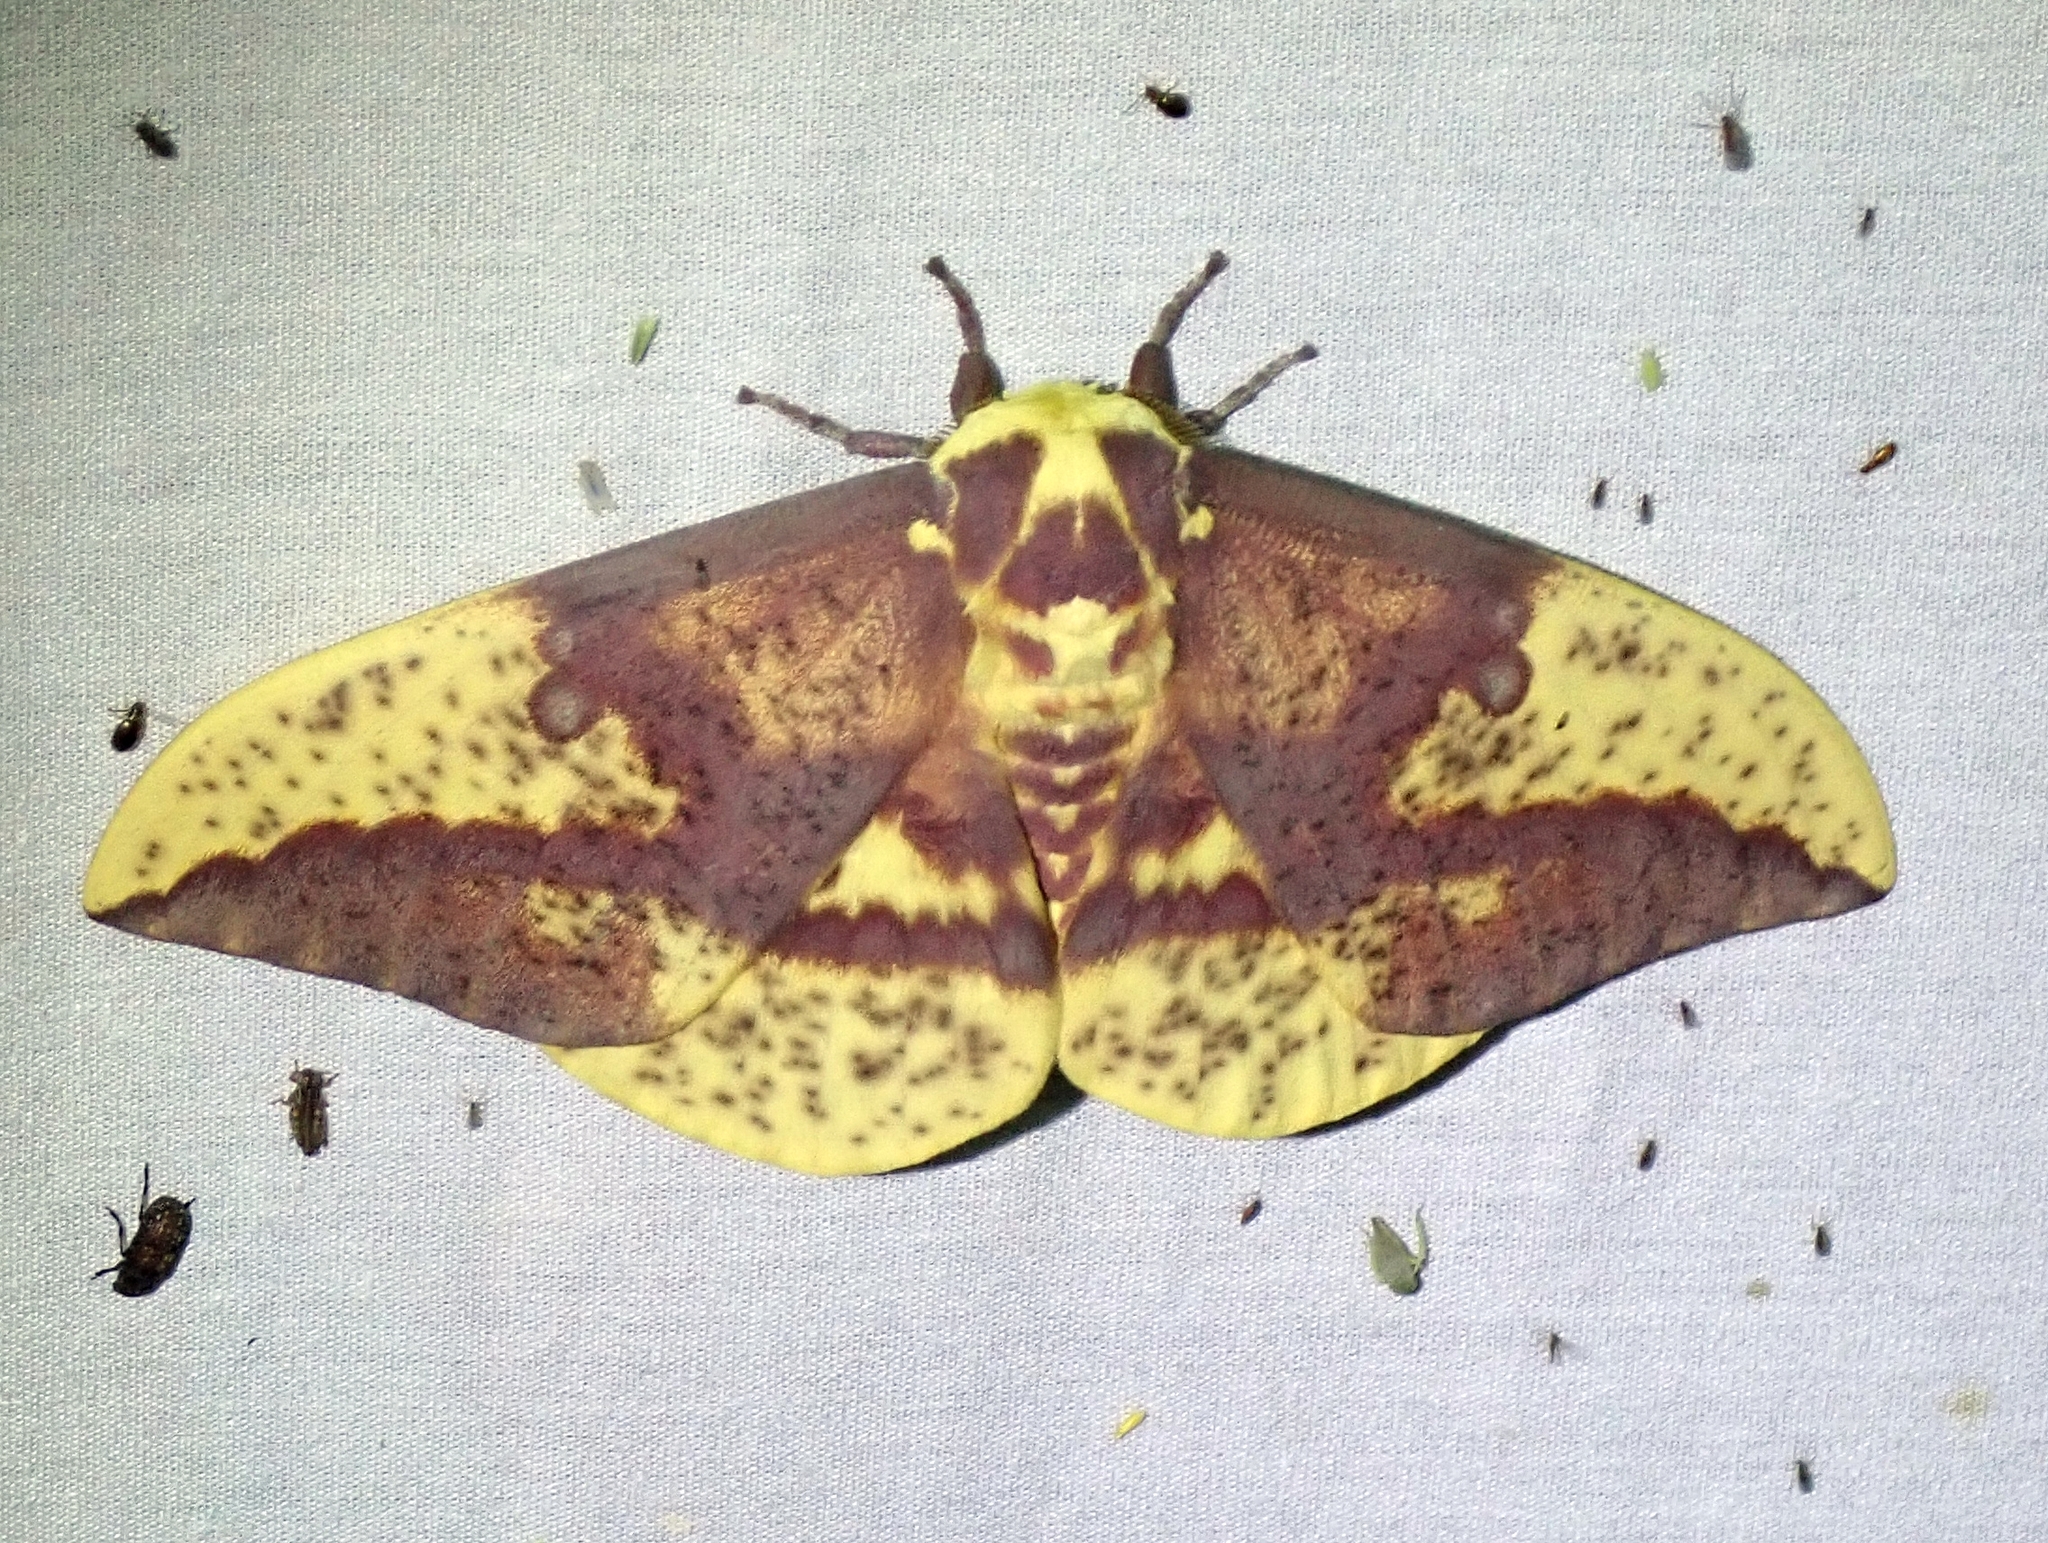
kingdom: Animalia
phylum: Arthropoda
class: Insecta
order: Lepidoptera
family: Saturniidae
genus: Eacles
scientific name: Eacles oslari
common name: Oslar's imperial moth
